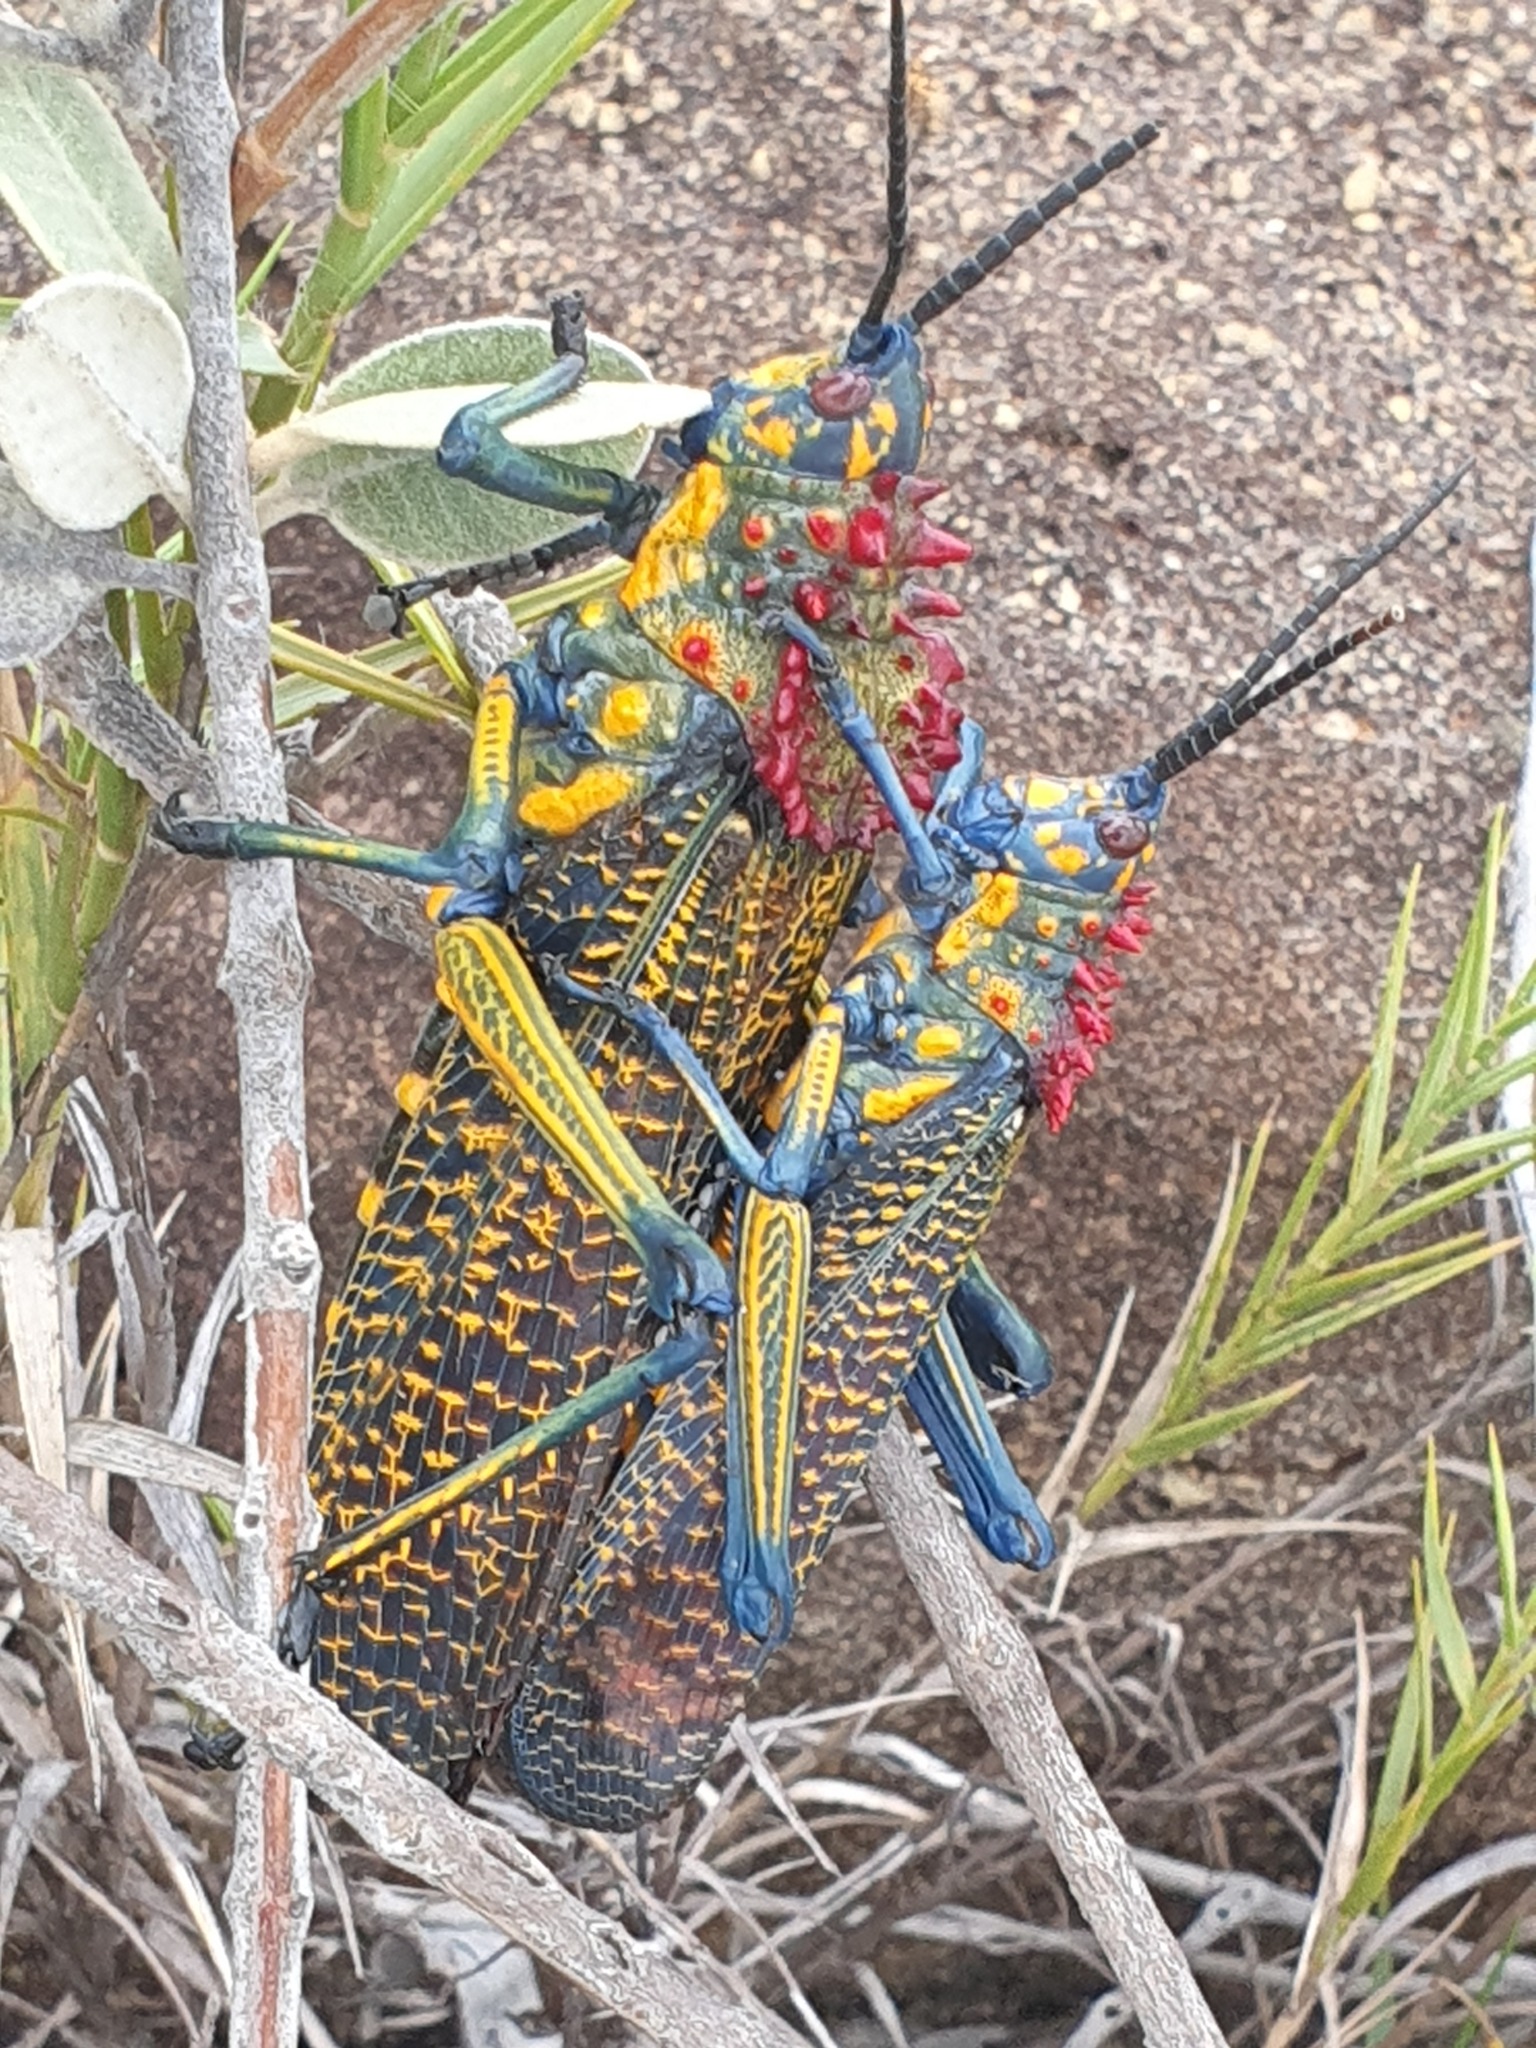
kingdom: Animalia
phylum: Arthropoda
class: Insecta
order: Orthoptera
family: Pyrgomorphidae
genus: Phymateus
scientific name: Phymateus saxosus
